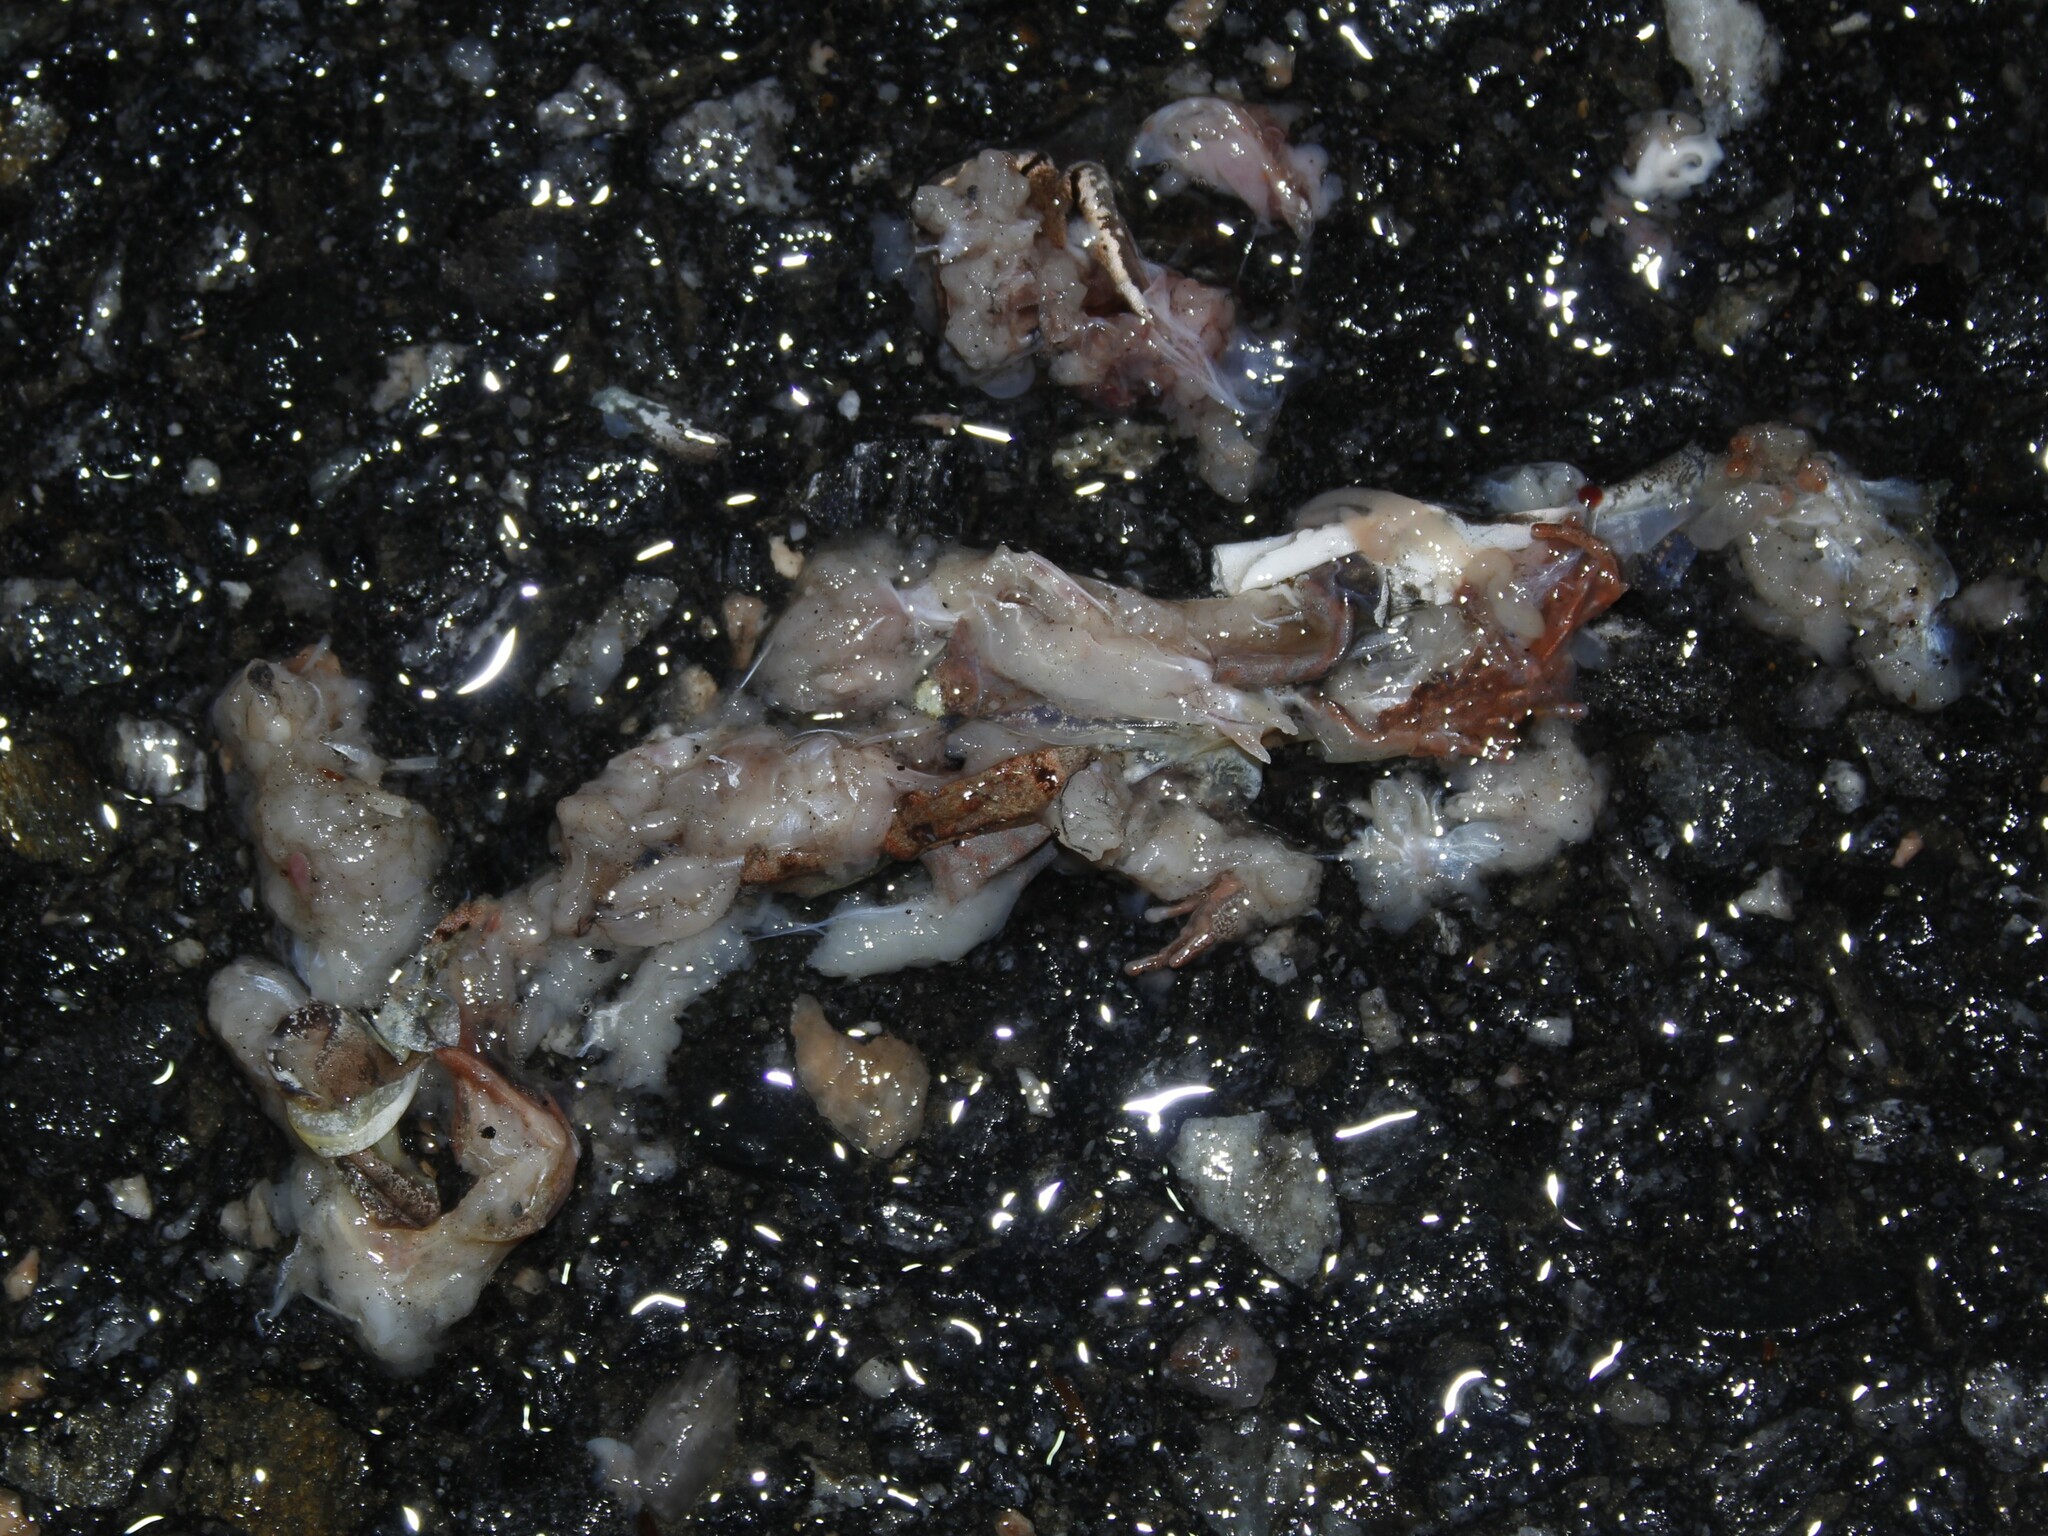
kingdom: Animalia
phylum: Chordata
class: Amphibia
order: Anura
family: Ranidae
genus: Lithobates
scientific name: Lithobates sylvaticus
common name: Wood frog
